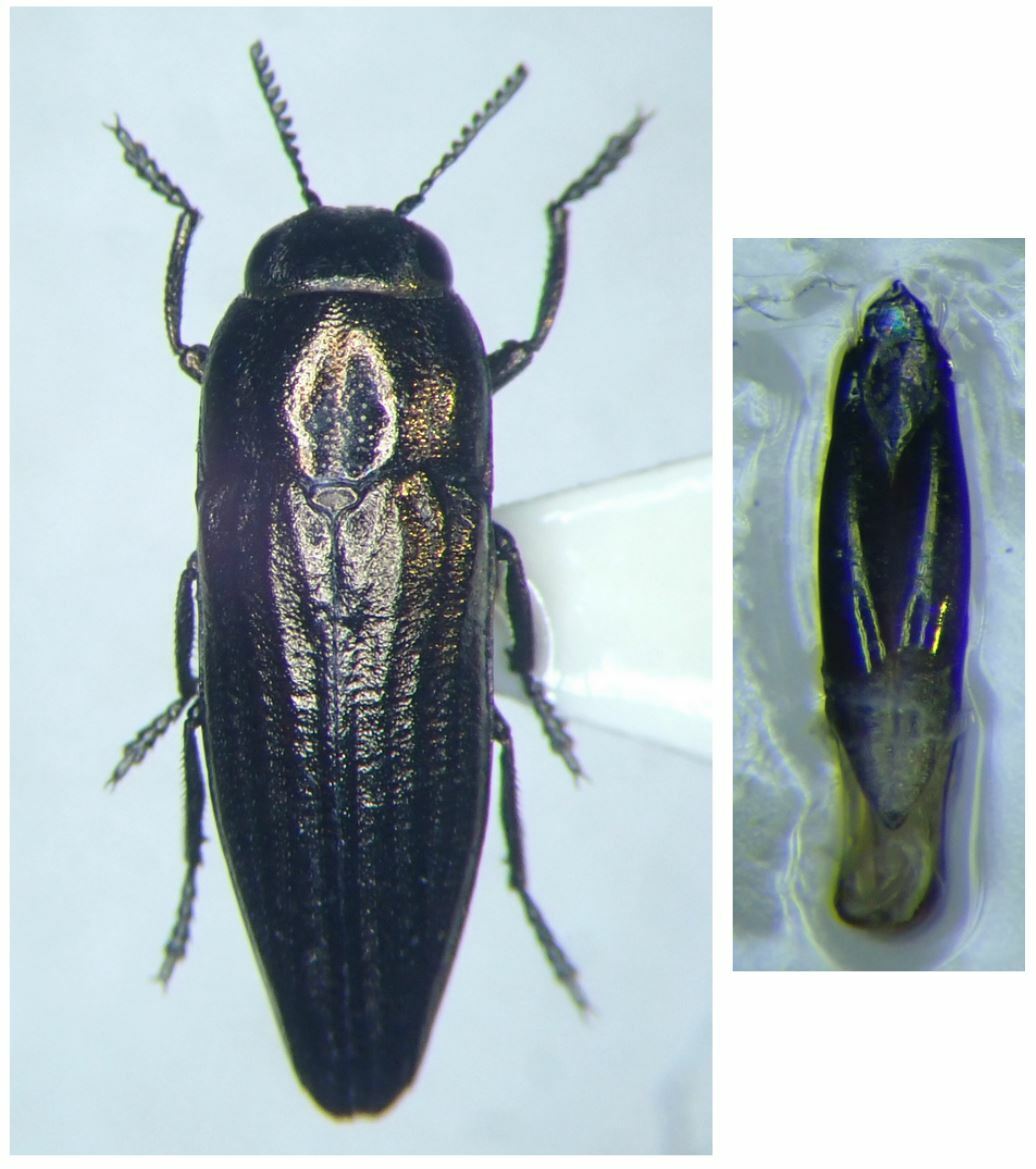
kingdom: Animalia
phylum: Arthropoda
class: Insecta
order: Coleoptera
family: Buprestidae
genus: Sphenoptera
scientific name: Sphenoptera gemmata
